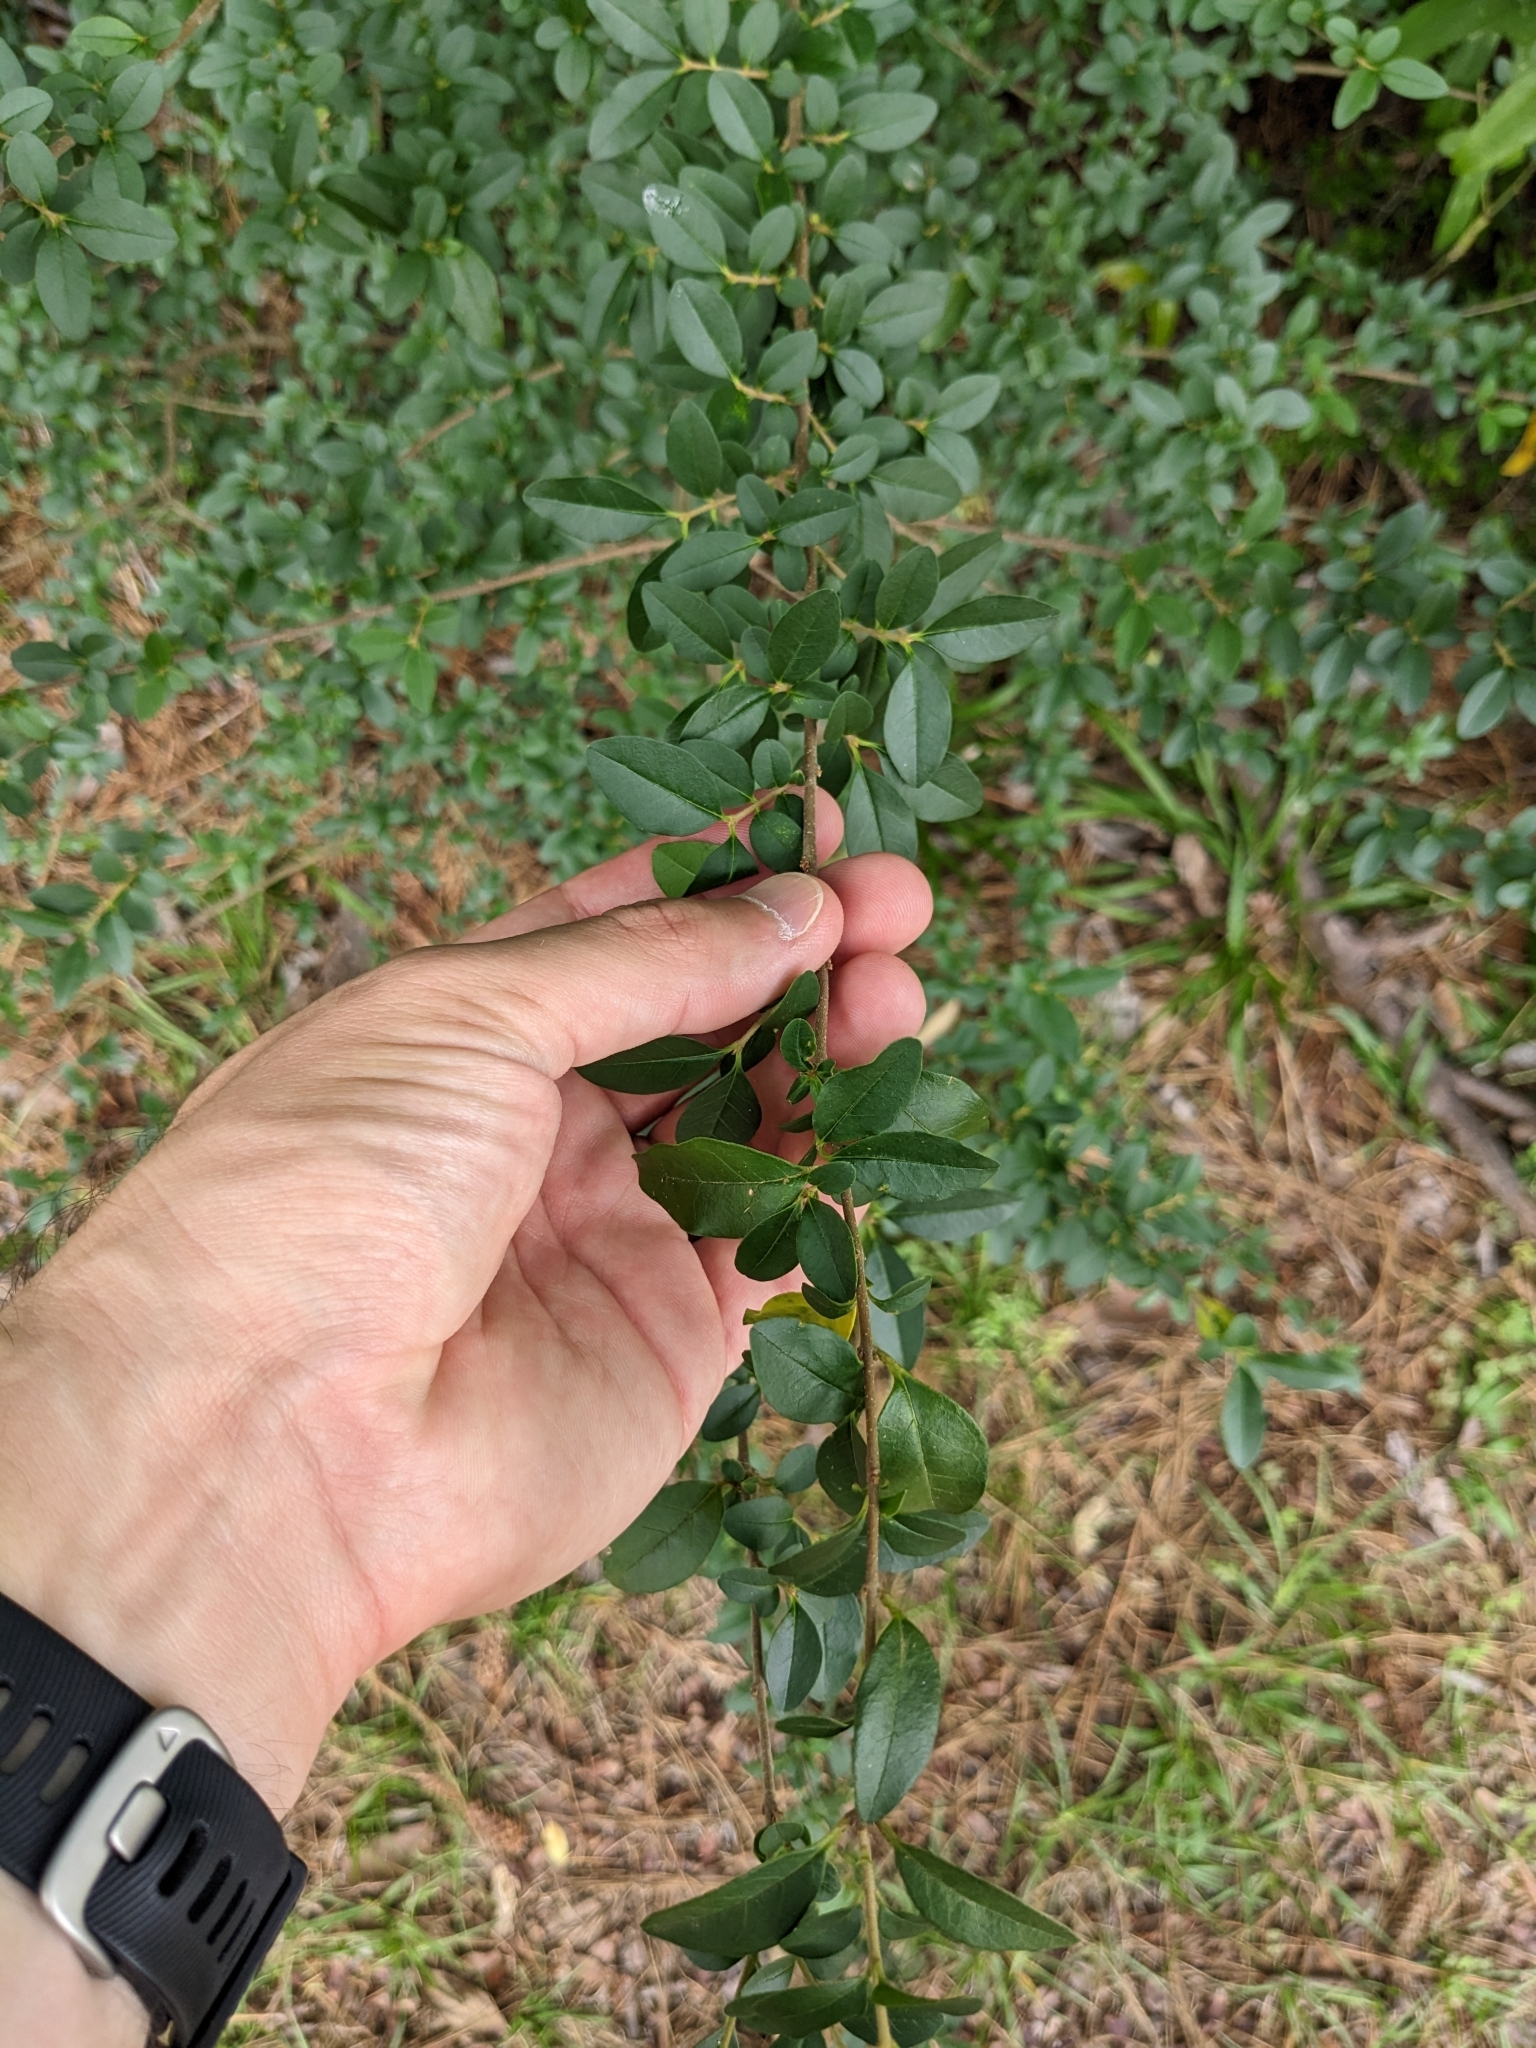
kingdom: Plantae
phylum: Tracheophyta
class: Magnoliopsida
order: Lamiales
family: Oleaceae
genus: Ligustrum
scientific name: Ligustrum sinense
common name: Chinese privet
